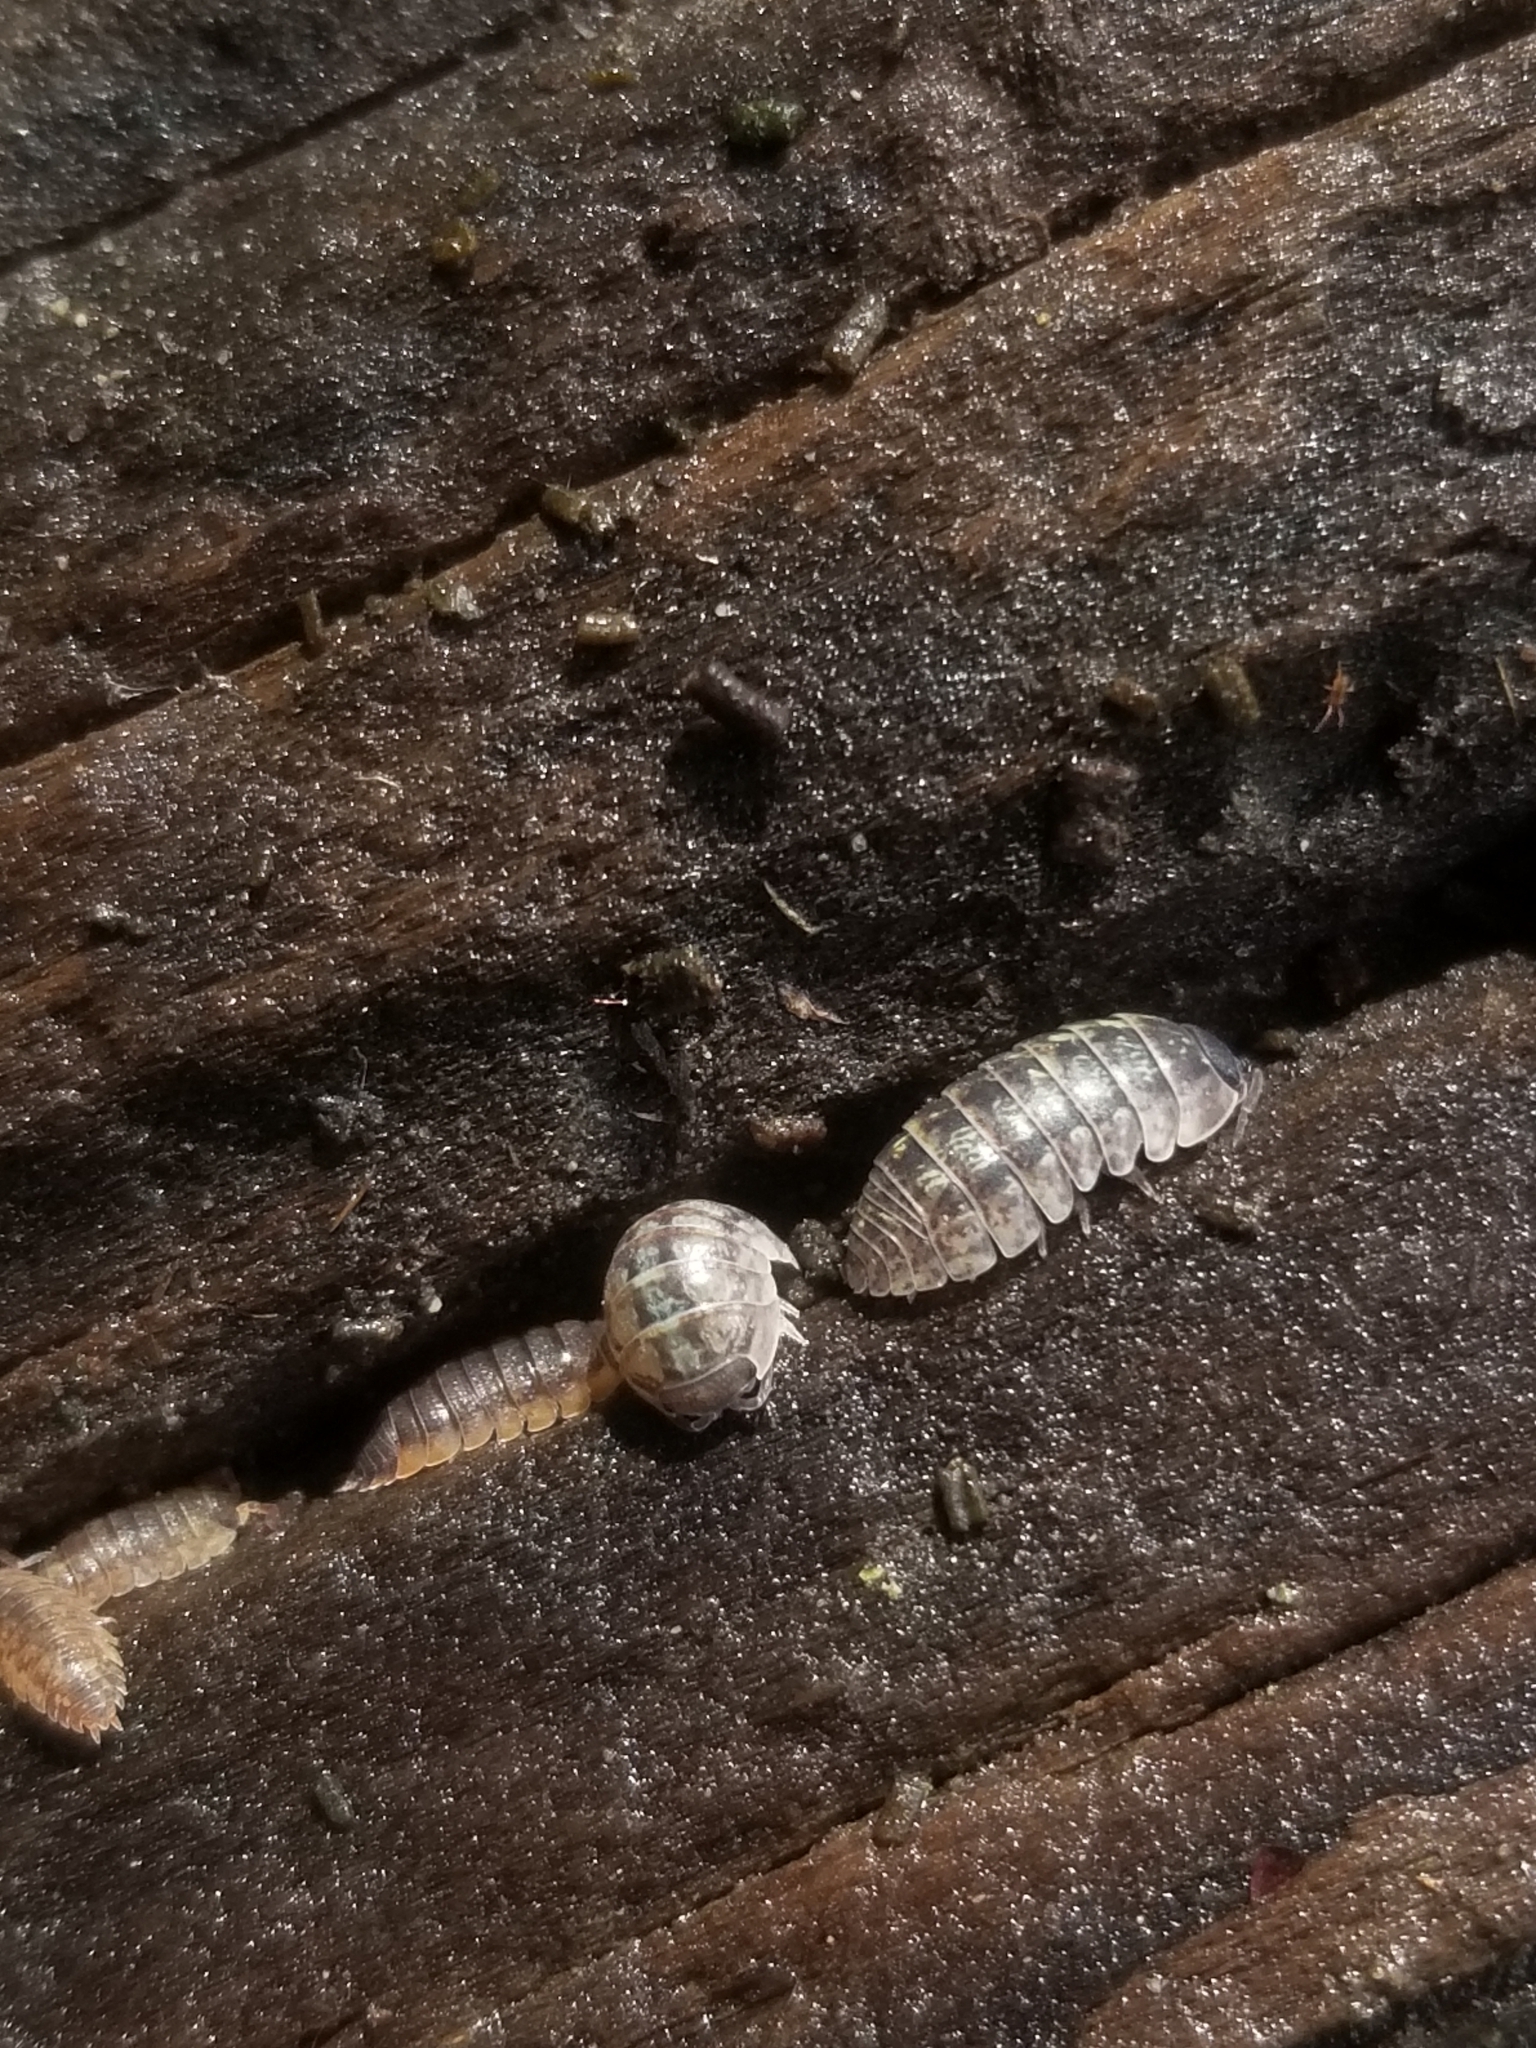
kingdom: Animalia
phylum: Arthropoda
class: Malacostraca
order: Isopoda
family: Armadillidiidae
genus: Armadillidium
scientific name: Armadillidium vulgare
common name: Common pill woodlouse
